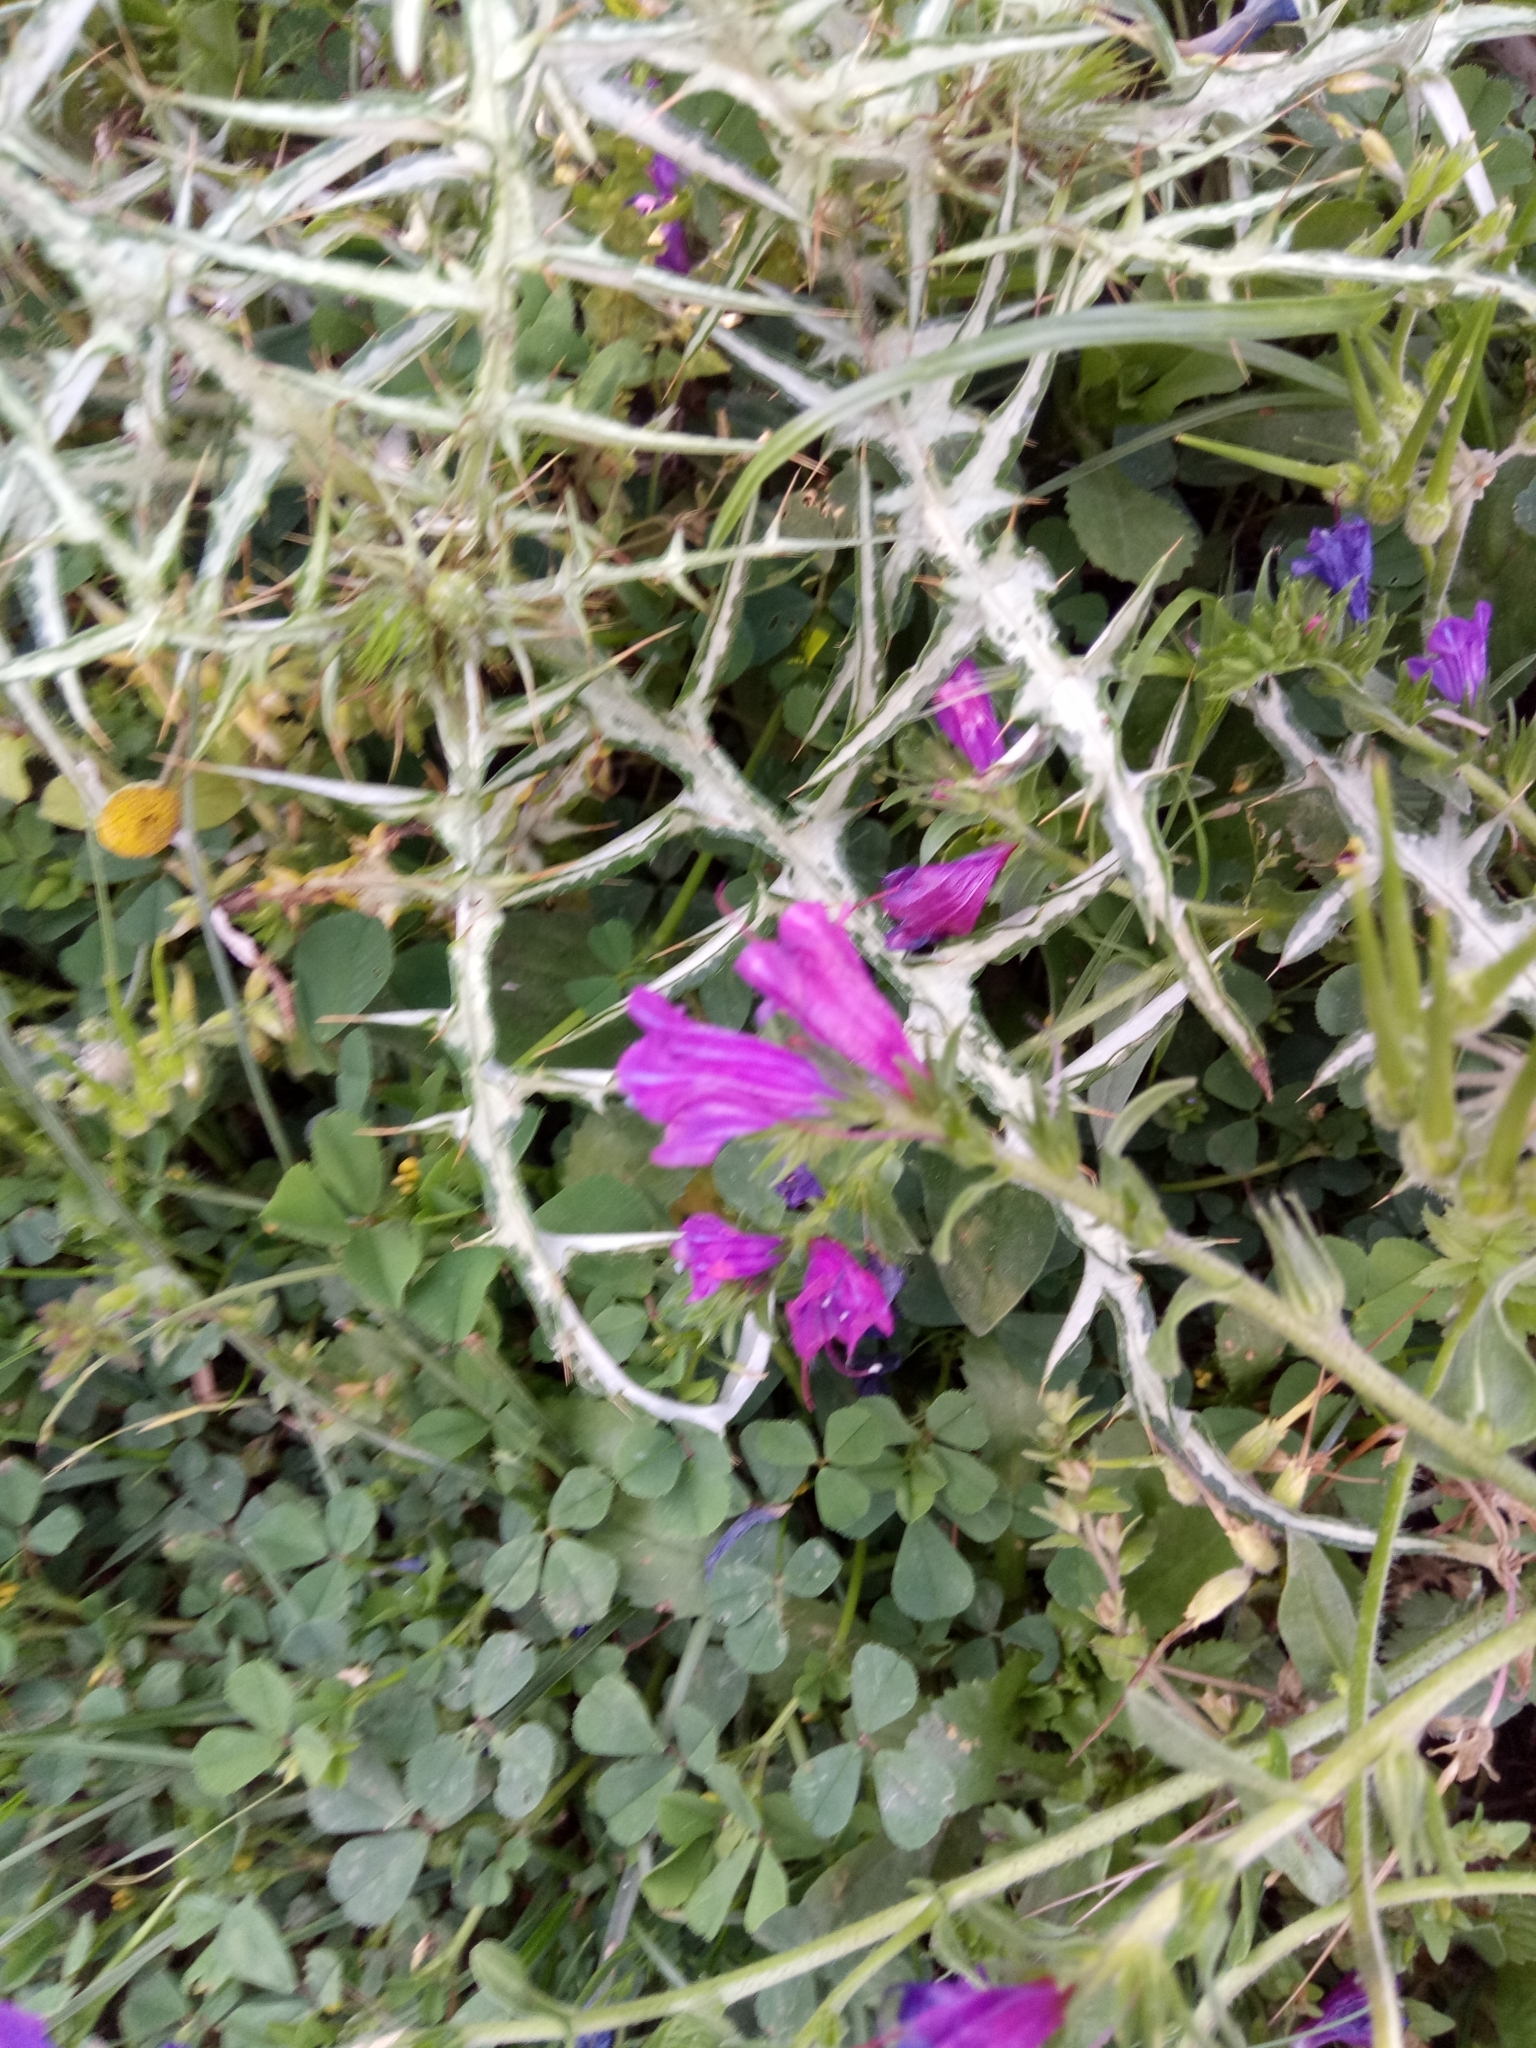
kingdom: Plantae
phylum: Tracheophyta
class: Magnoliopsida
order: Boraginales
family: Boraginaceae
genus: Echium
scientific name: Echium plantagineum
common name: Purple viper's-bugloss
